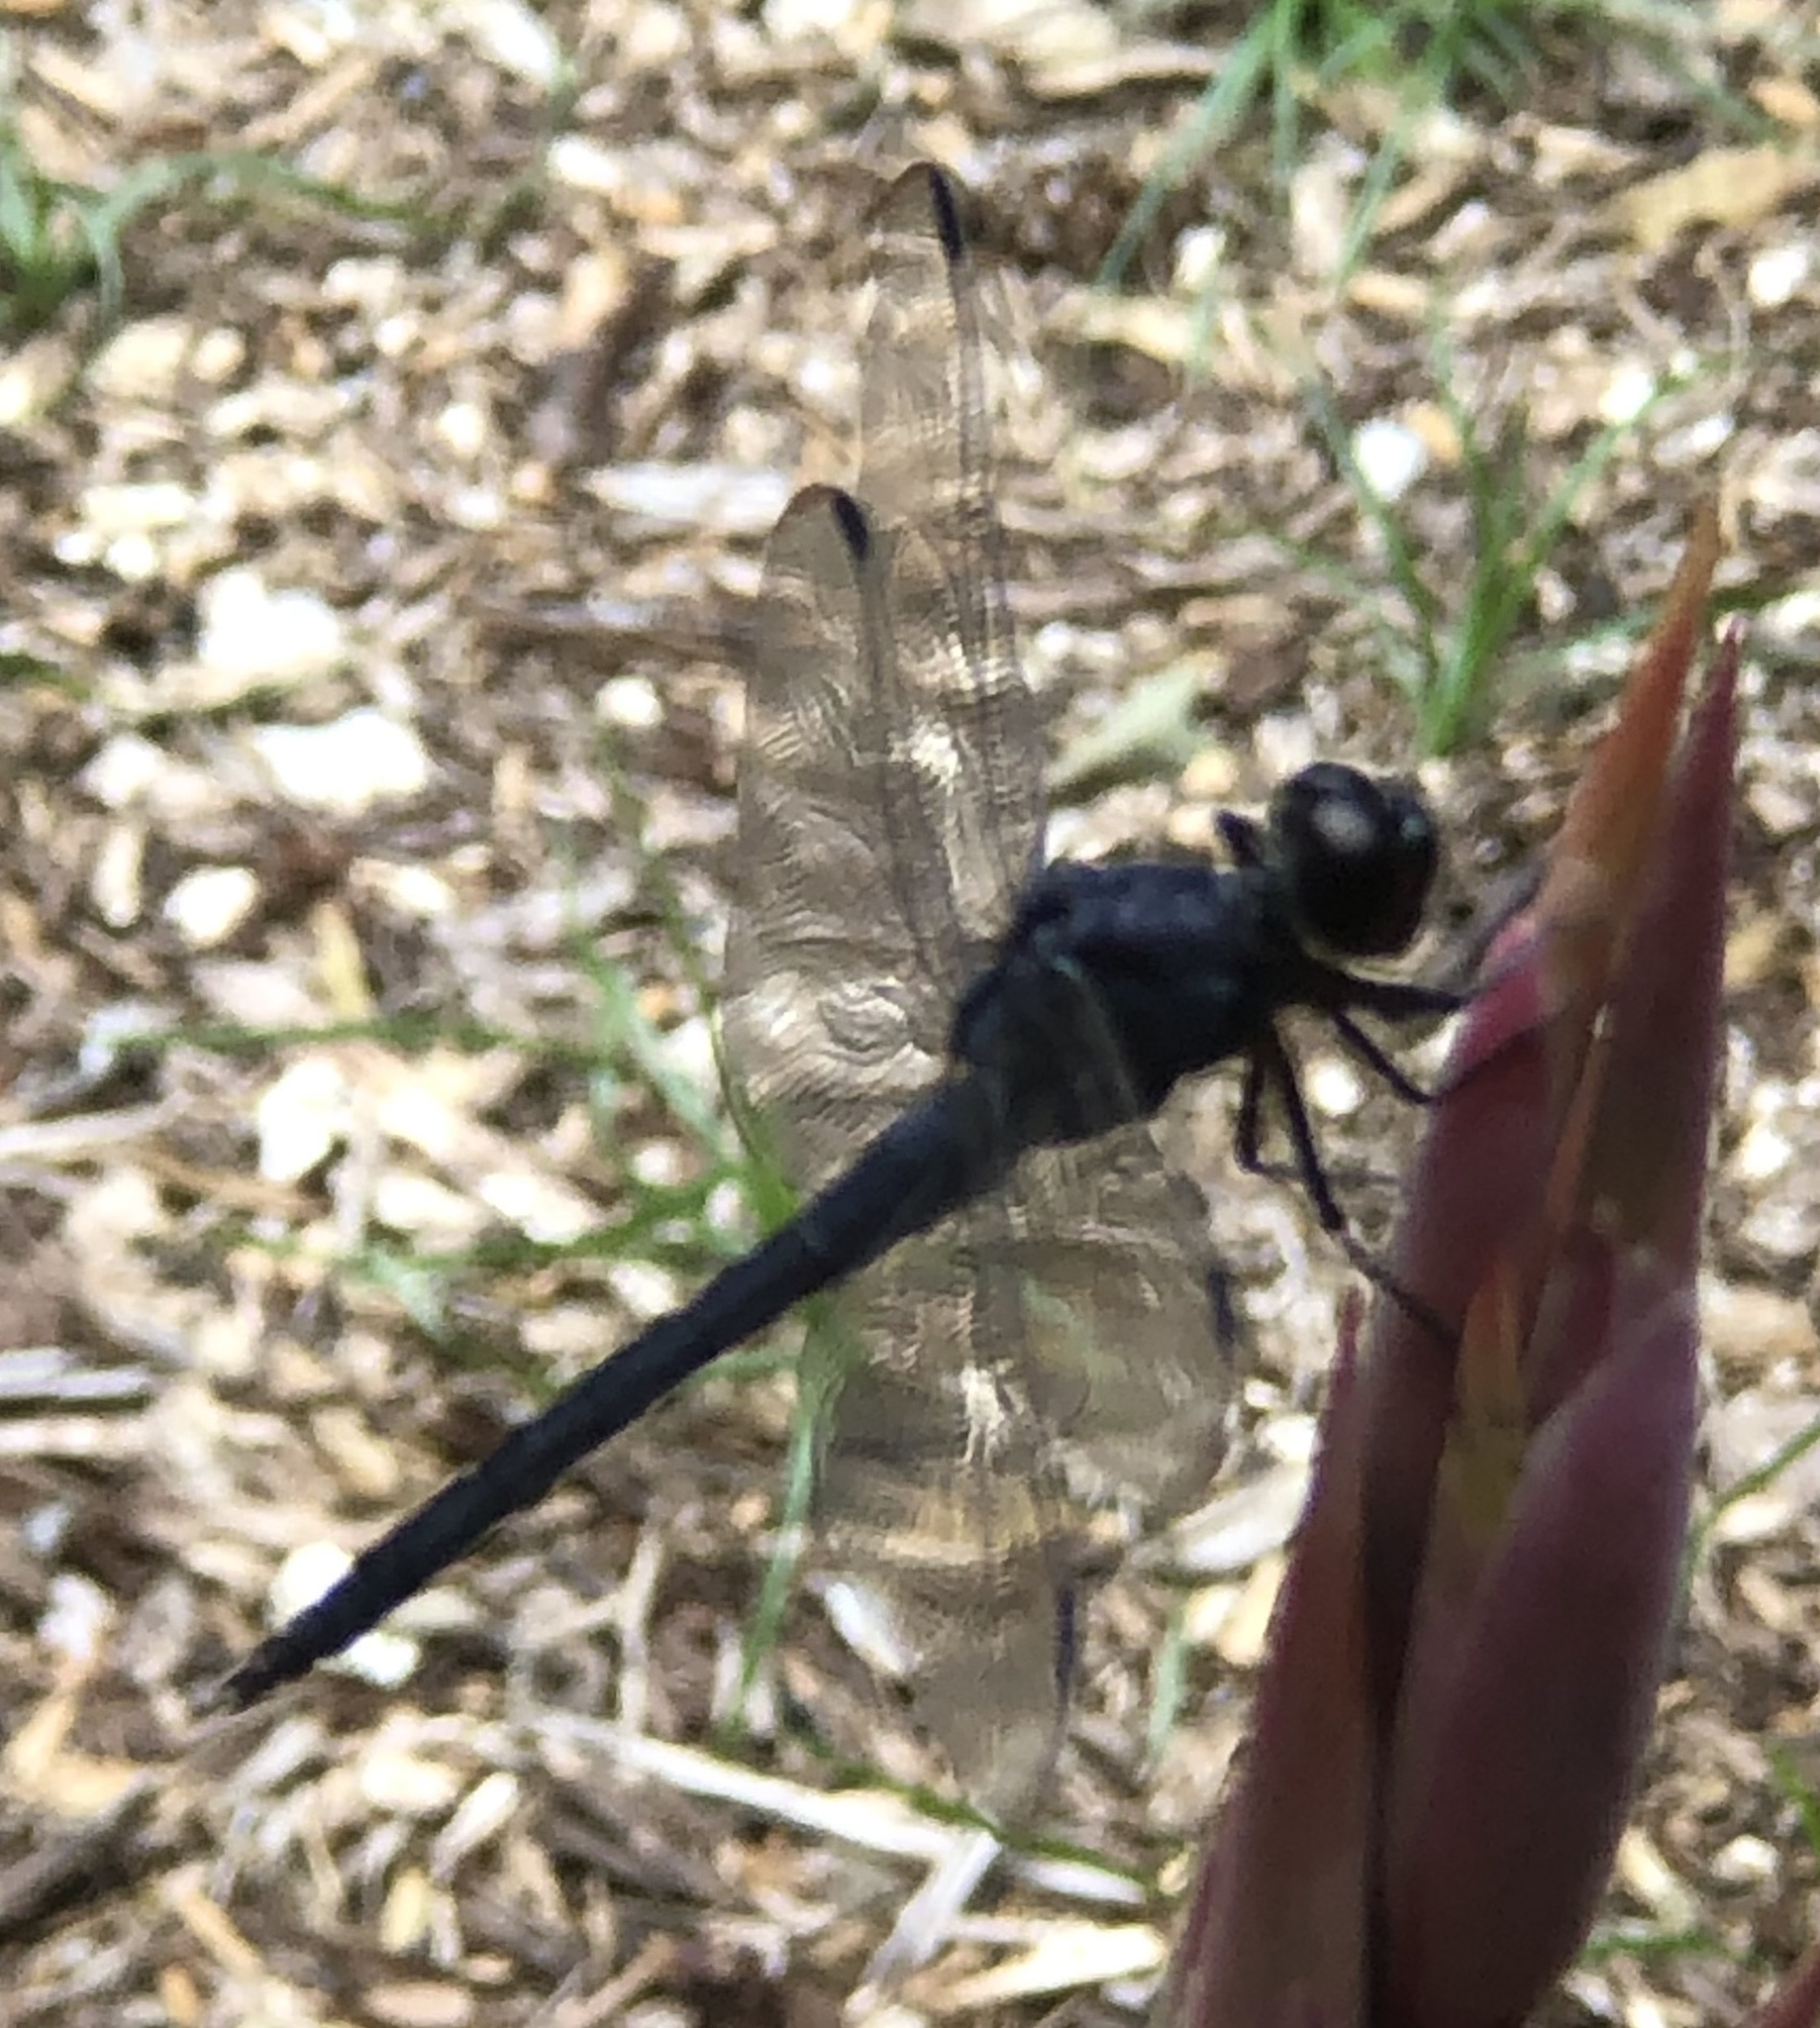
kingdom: Animalia
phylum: Arthropoda
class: Insecta
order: Odonata
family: Libellulidae
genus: Libellula
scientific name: Libellula incesta
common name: Slaty skimmer
